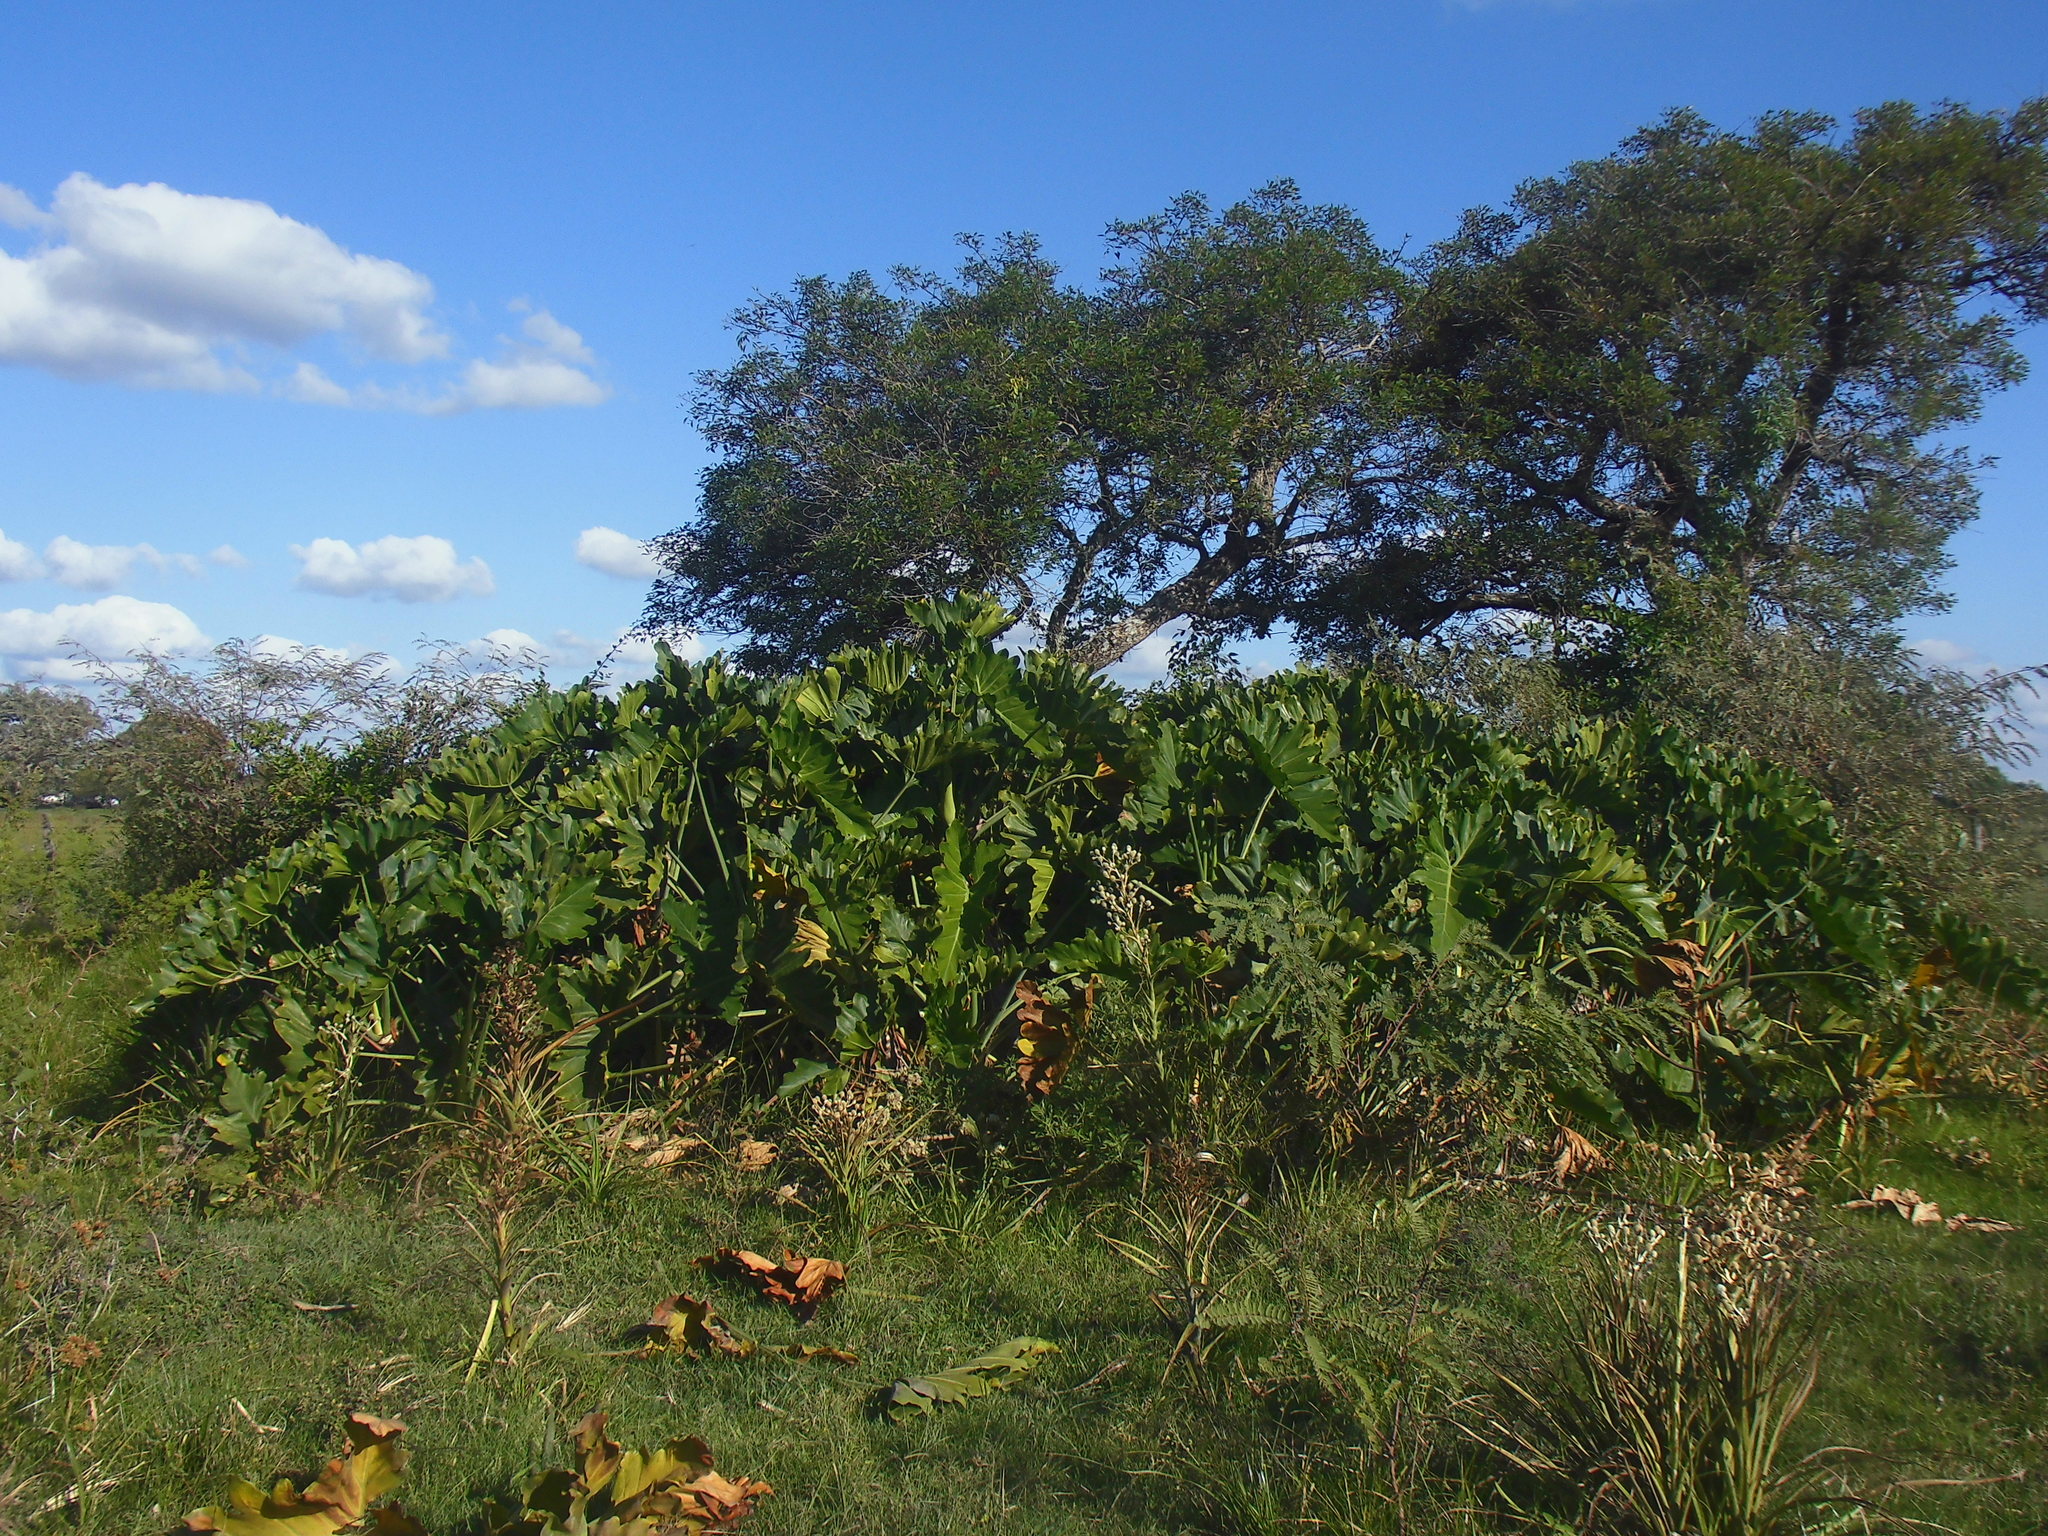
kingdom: Plantae
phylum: Tracheophyta
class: Liliopsida
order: Alismatales
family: Araceae
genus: Thaumatophyllum
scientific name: Thaumatophyllum undulatum
